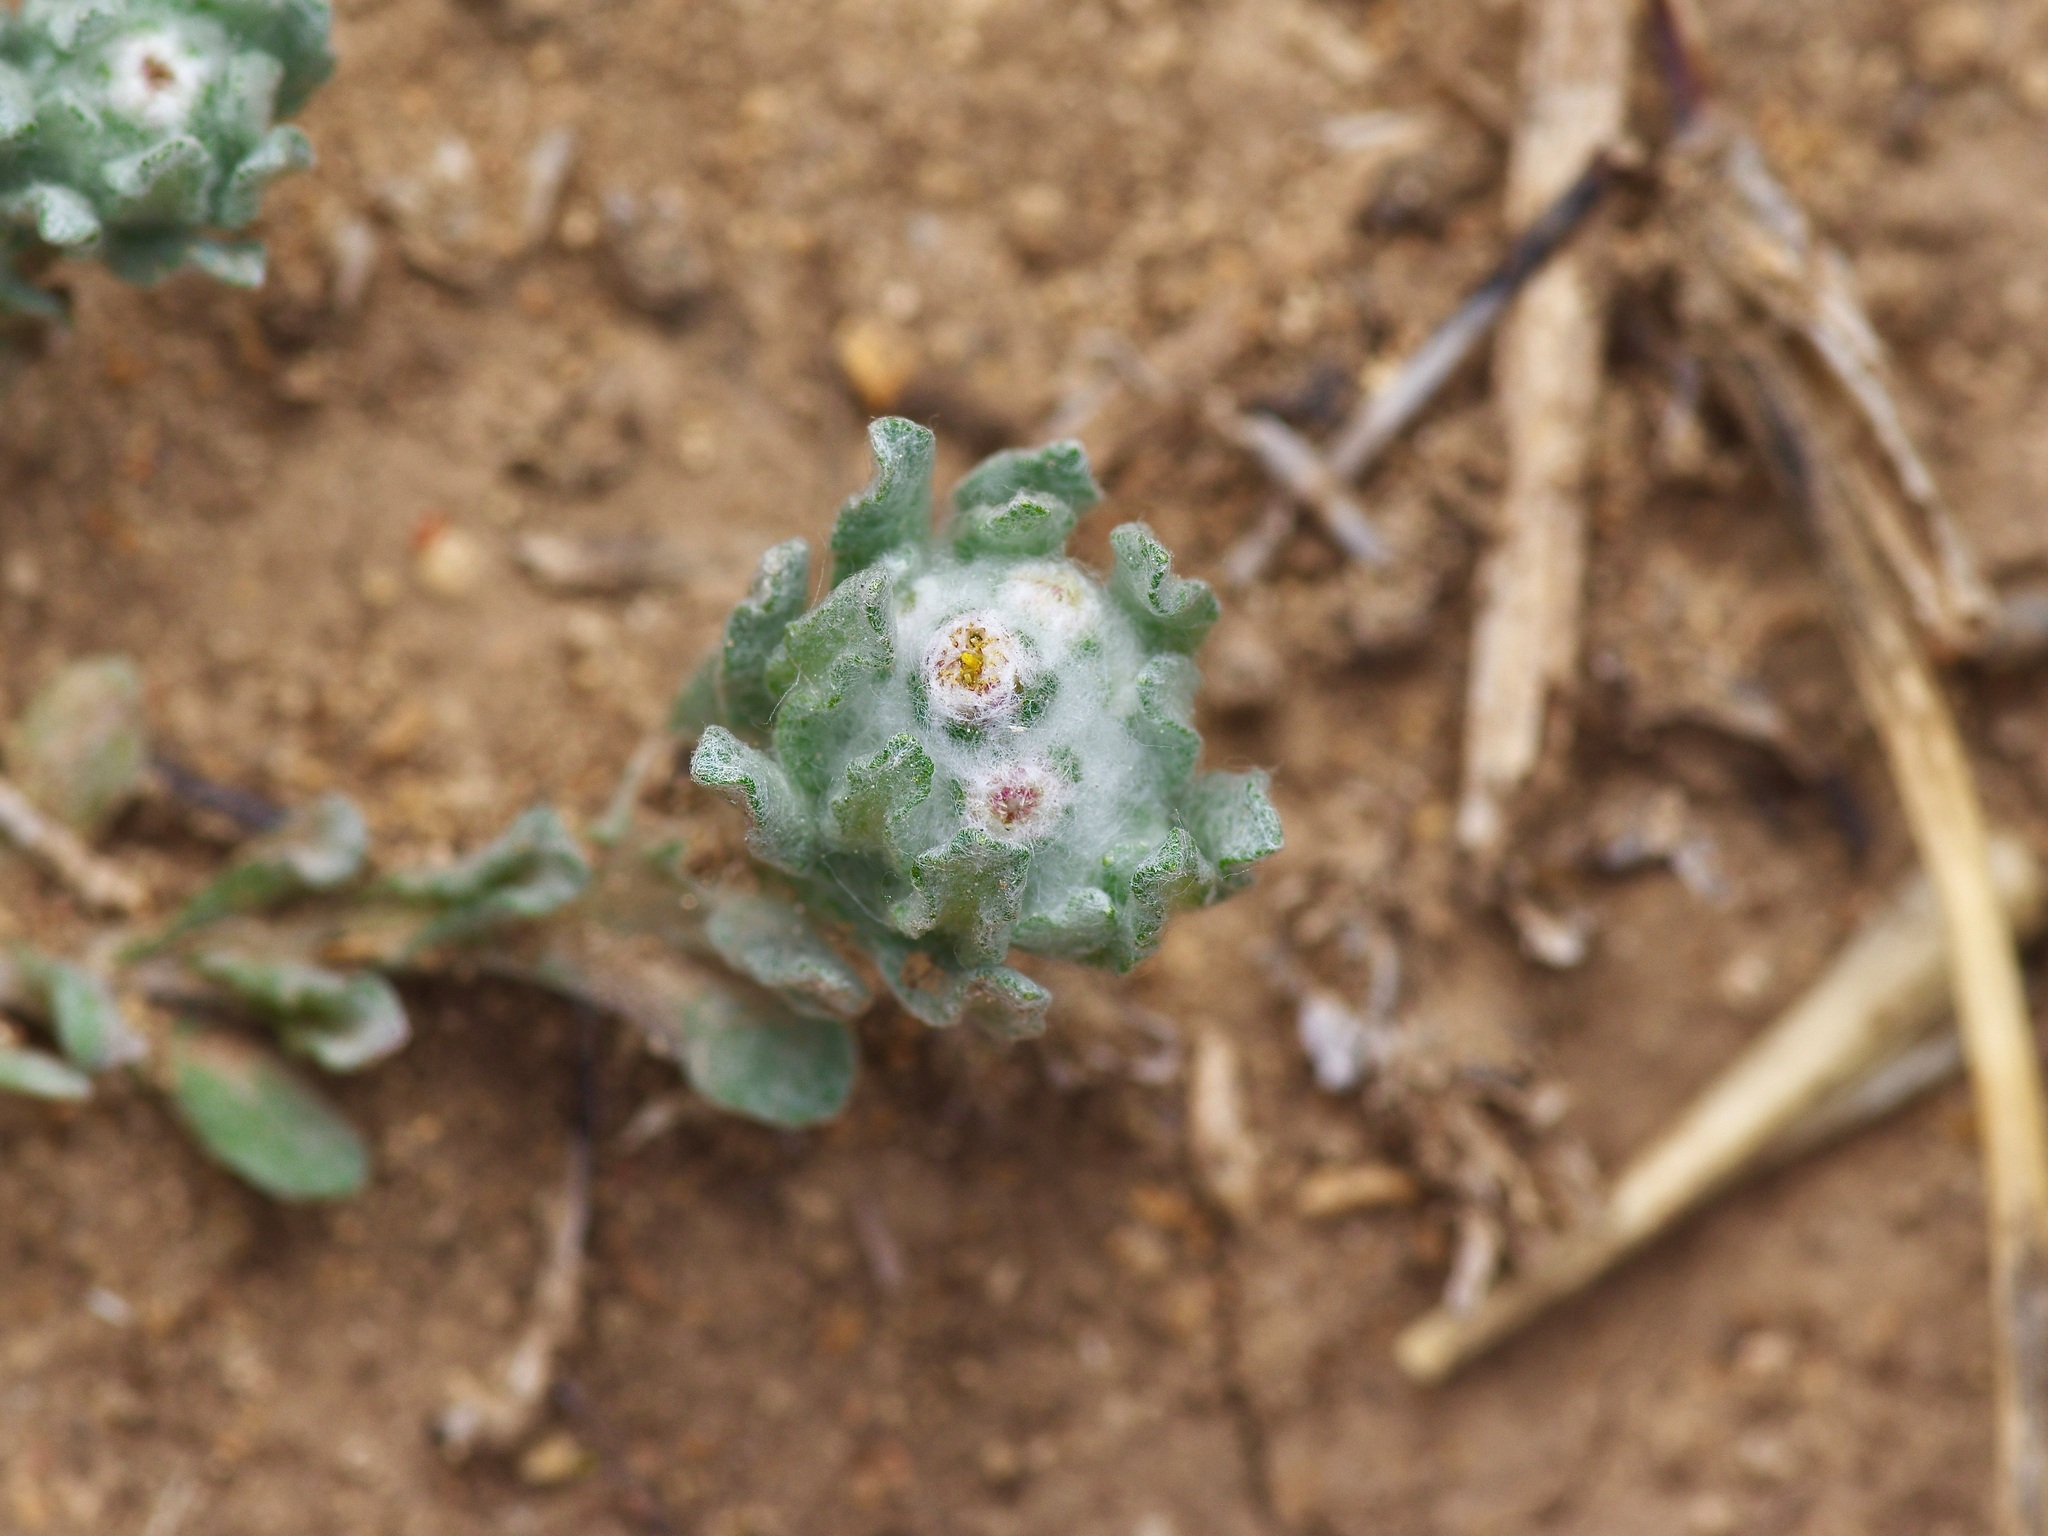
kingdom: Plantae
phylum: Tracheophyta
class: Magnoliopsida
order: Asterales
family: Asteraceae
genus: Diaperia
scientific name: Diaperia prolifera
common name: Big-head rabbit-tobacco
